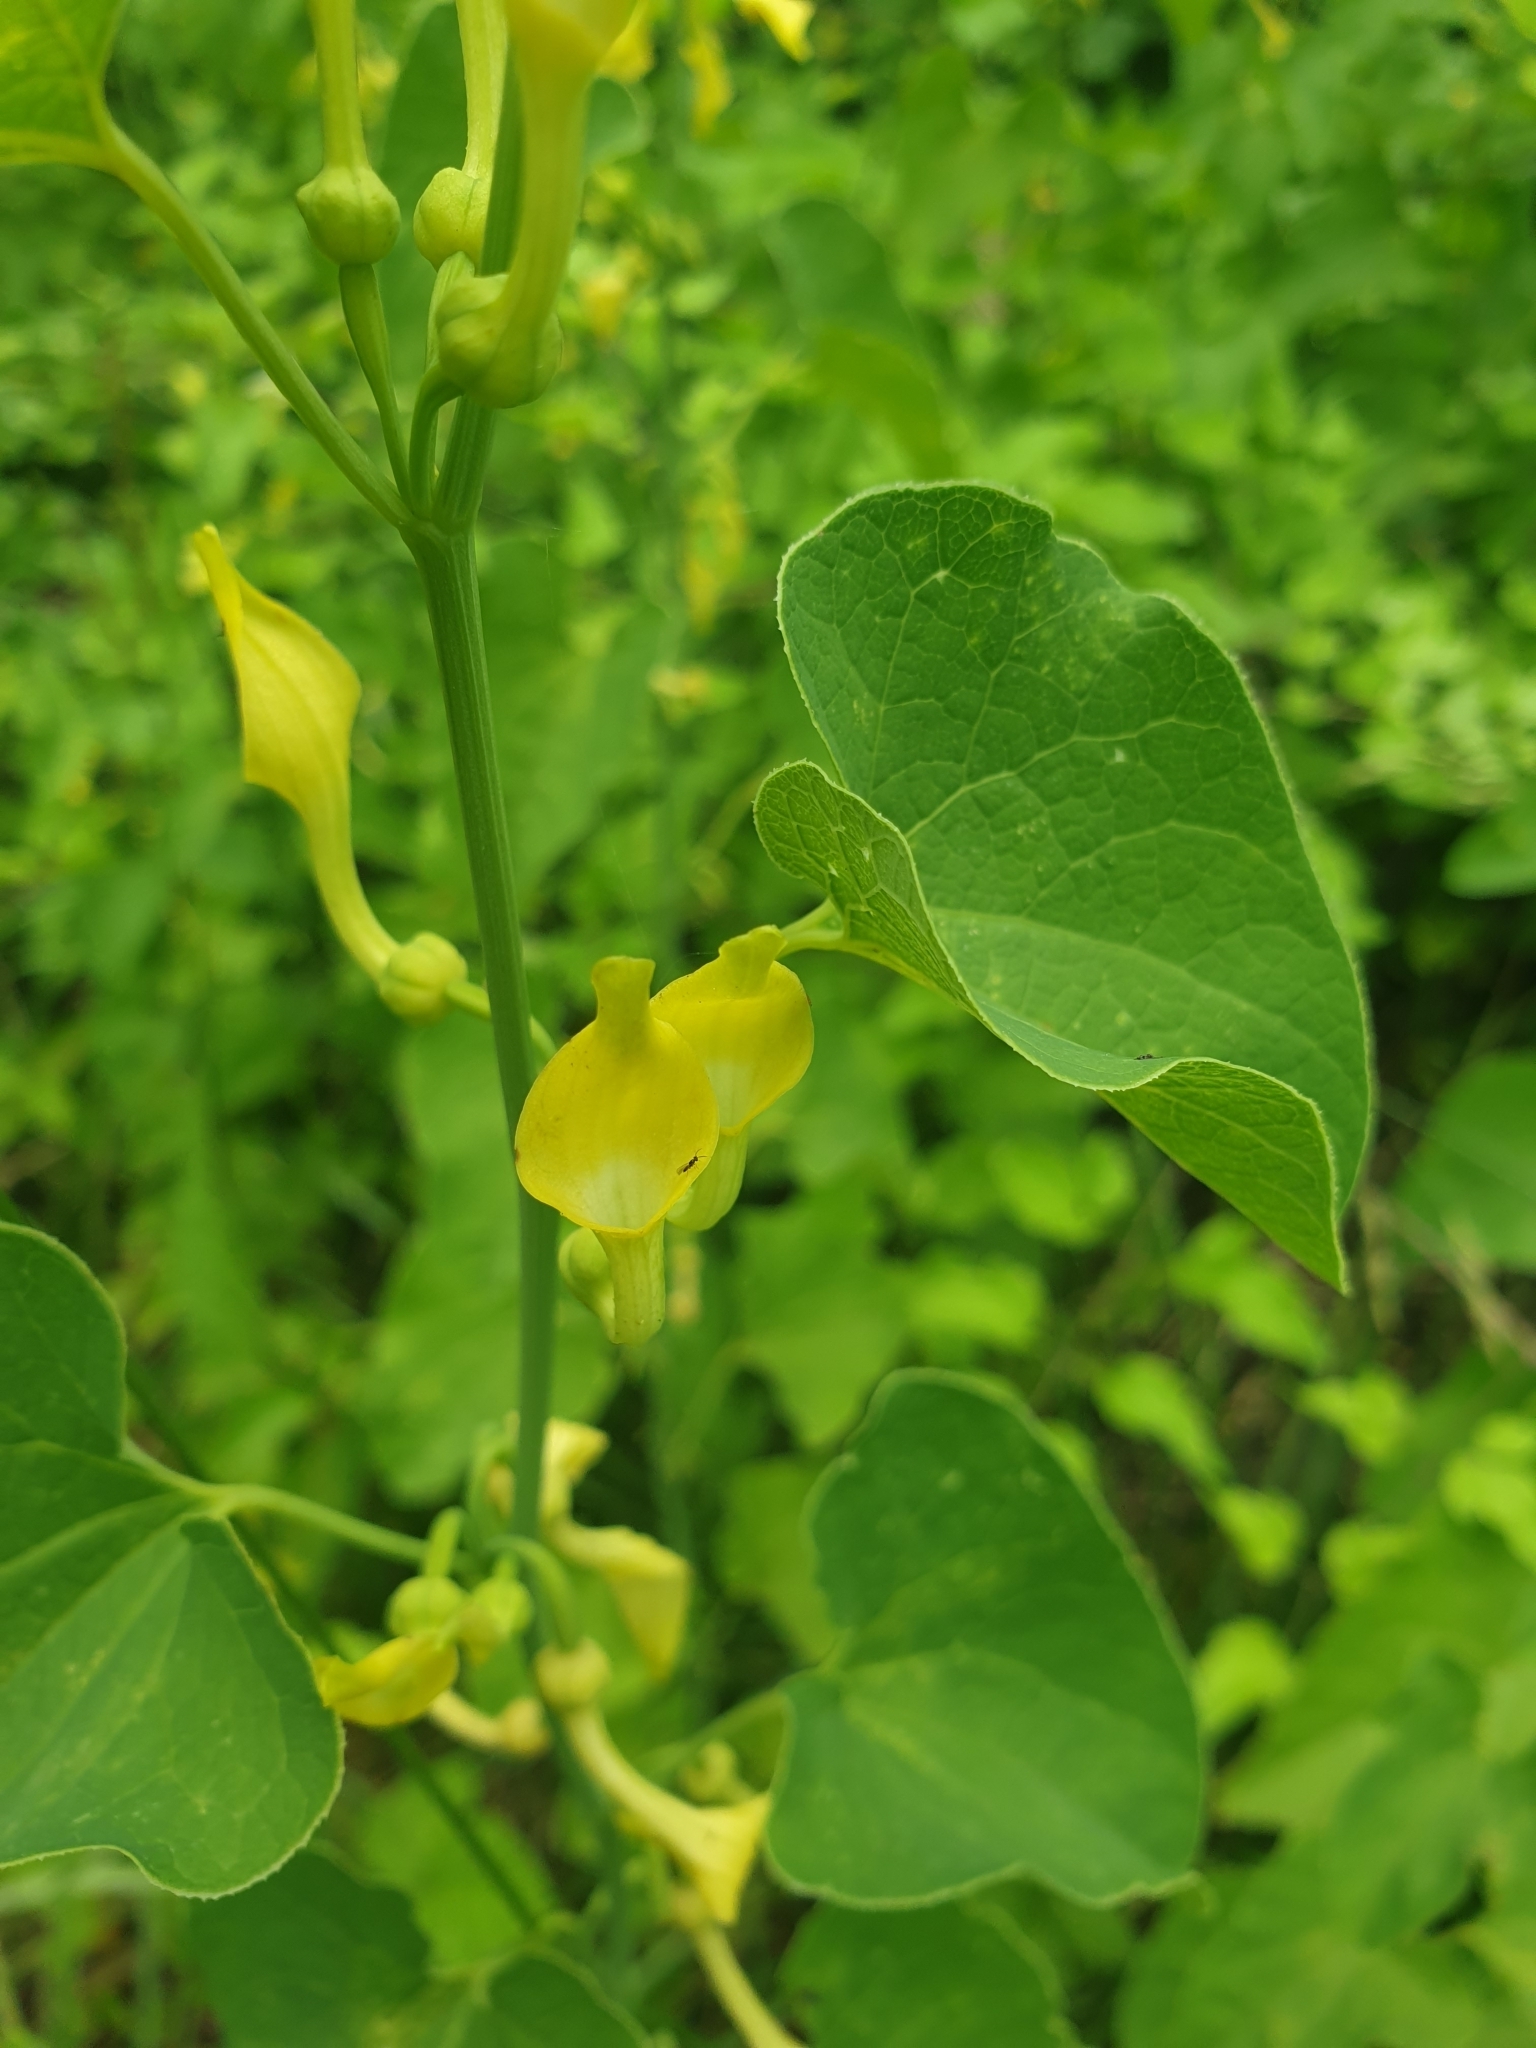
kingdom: Plantae
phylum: Tracheophyta
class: Magnoliopsida
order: Piperales
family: Aristolochiaceae
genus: Aristolochia
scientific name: Aristolochia clematitis
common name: Birthwort
